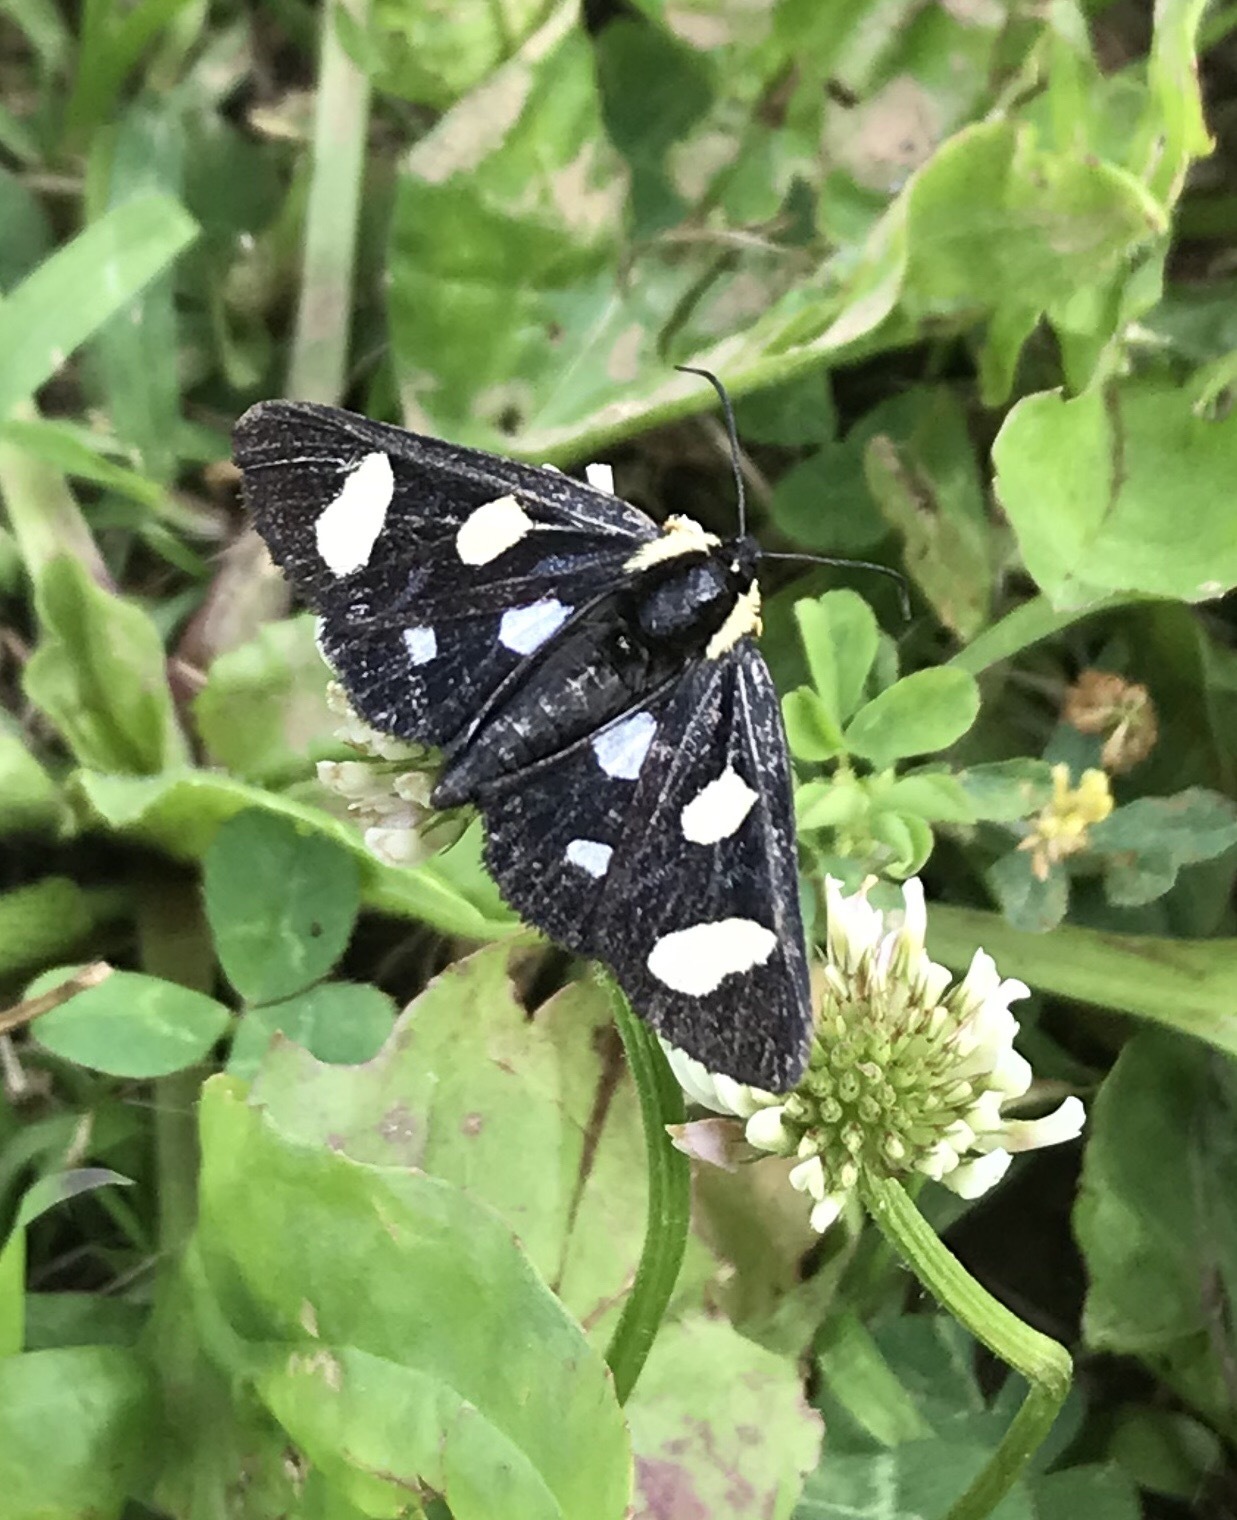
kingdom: Animalia
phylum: Arthropoda
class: Insecta
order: Lepidoptera
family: Noctuidae
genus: Alypia
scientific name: Alypia octomaculata
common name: Eight-spotted forester
